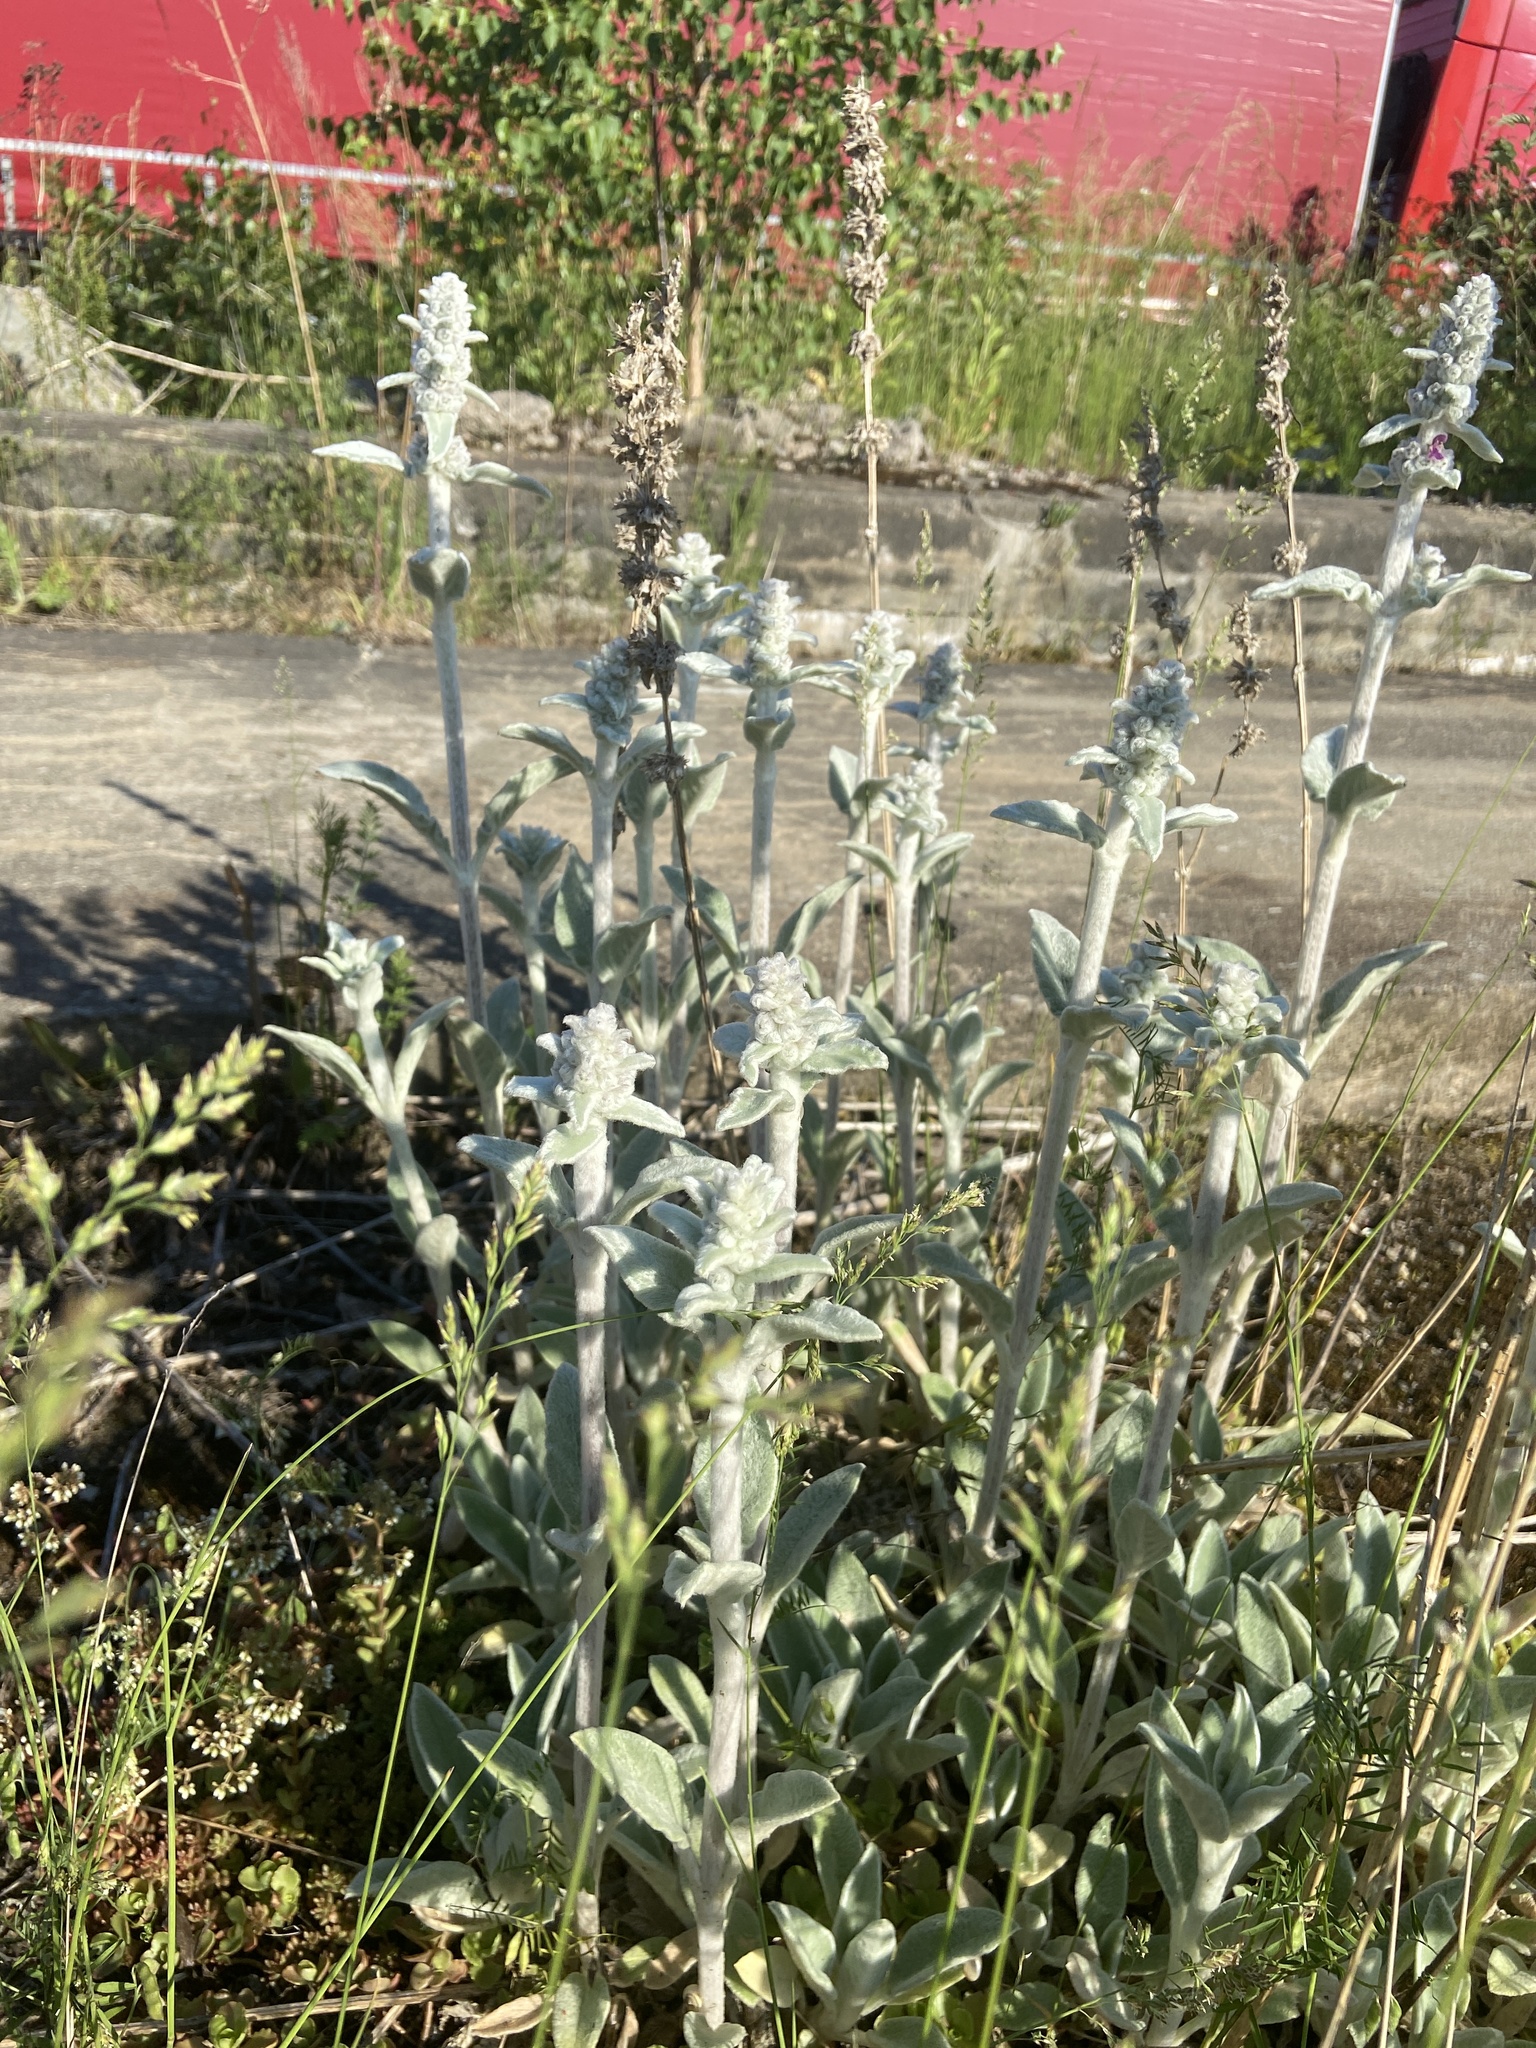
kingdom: Plantae
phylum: Tracheophyta
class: Magnoliopsida
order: Lamiales
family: Lamiaceae
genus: Stachys
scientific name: Stachys byzantina
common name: Lamb's-ear
